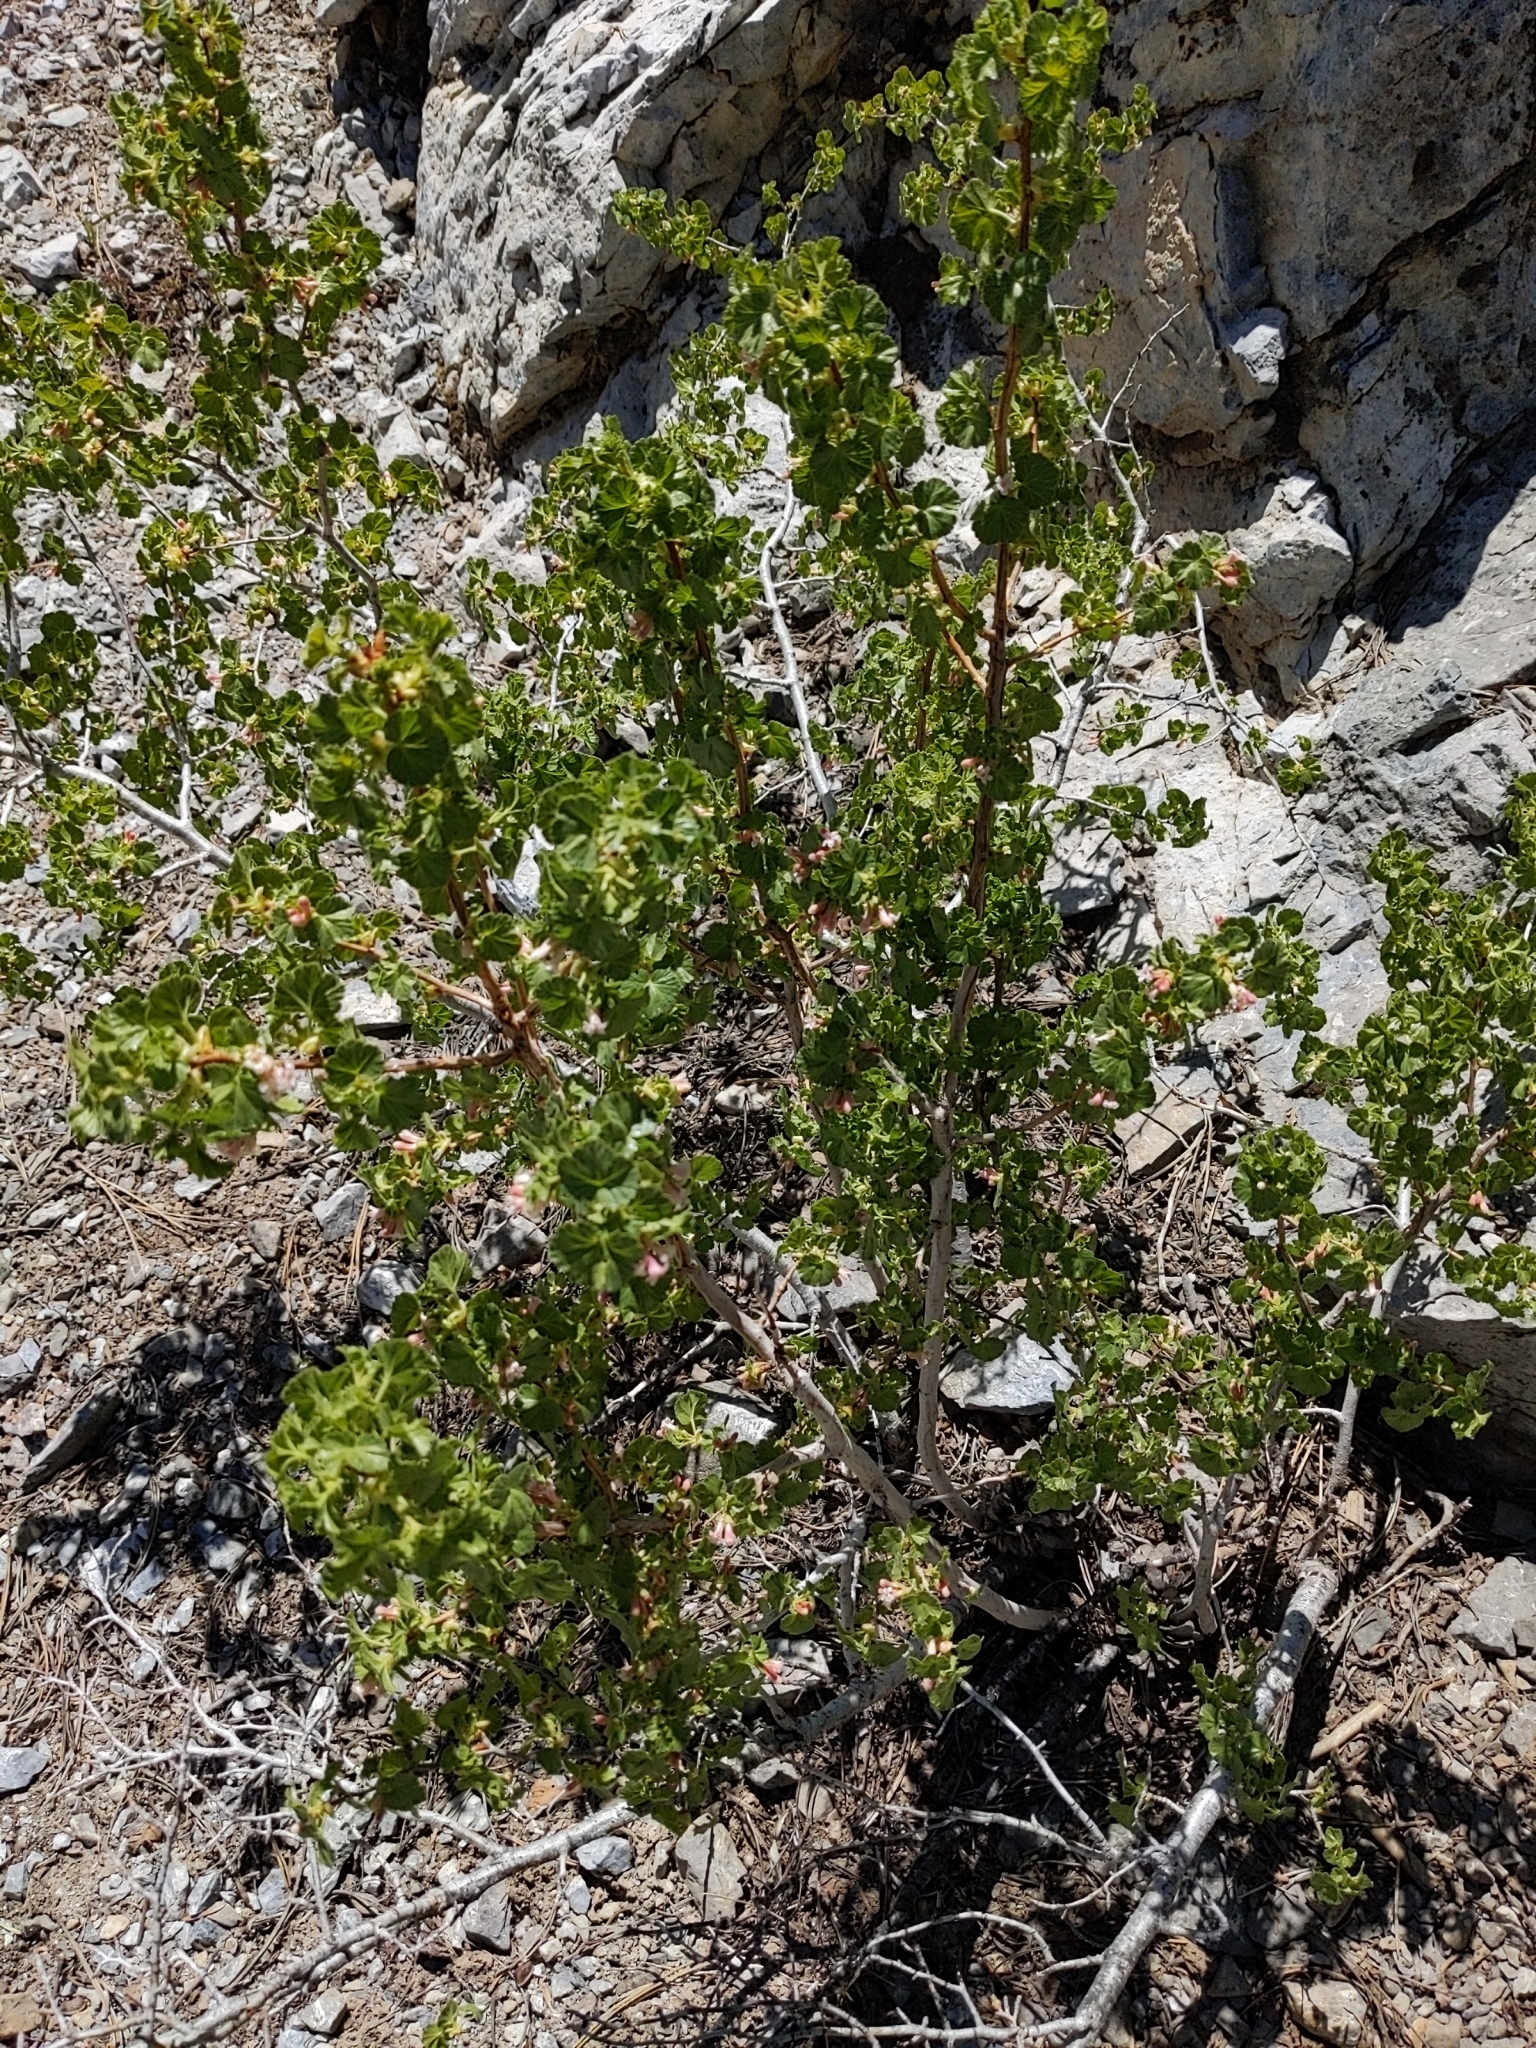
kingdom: Plantae
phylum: Tracheophyta
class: Magnoliopsida
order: Saxifragales
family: Grossulariaceae
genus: Ribes
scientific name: Ribes cereum
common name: Wax currant
